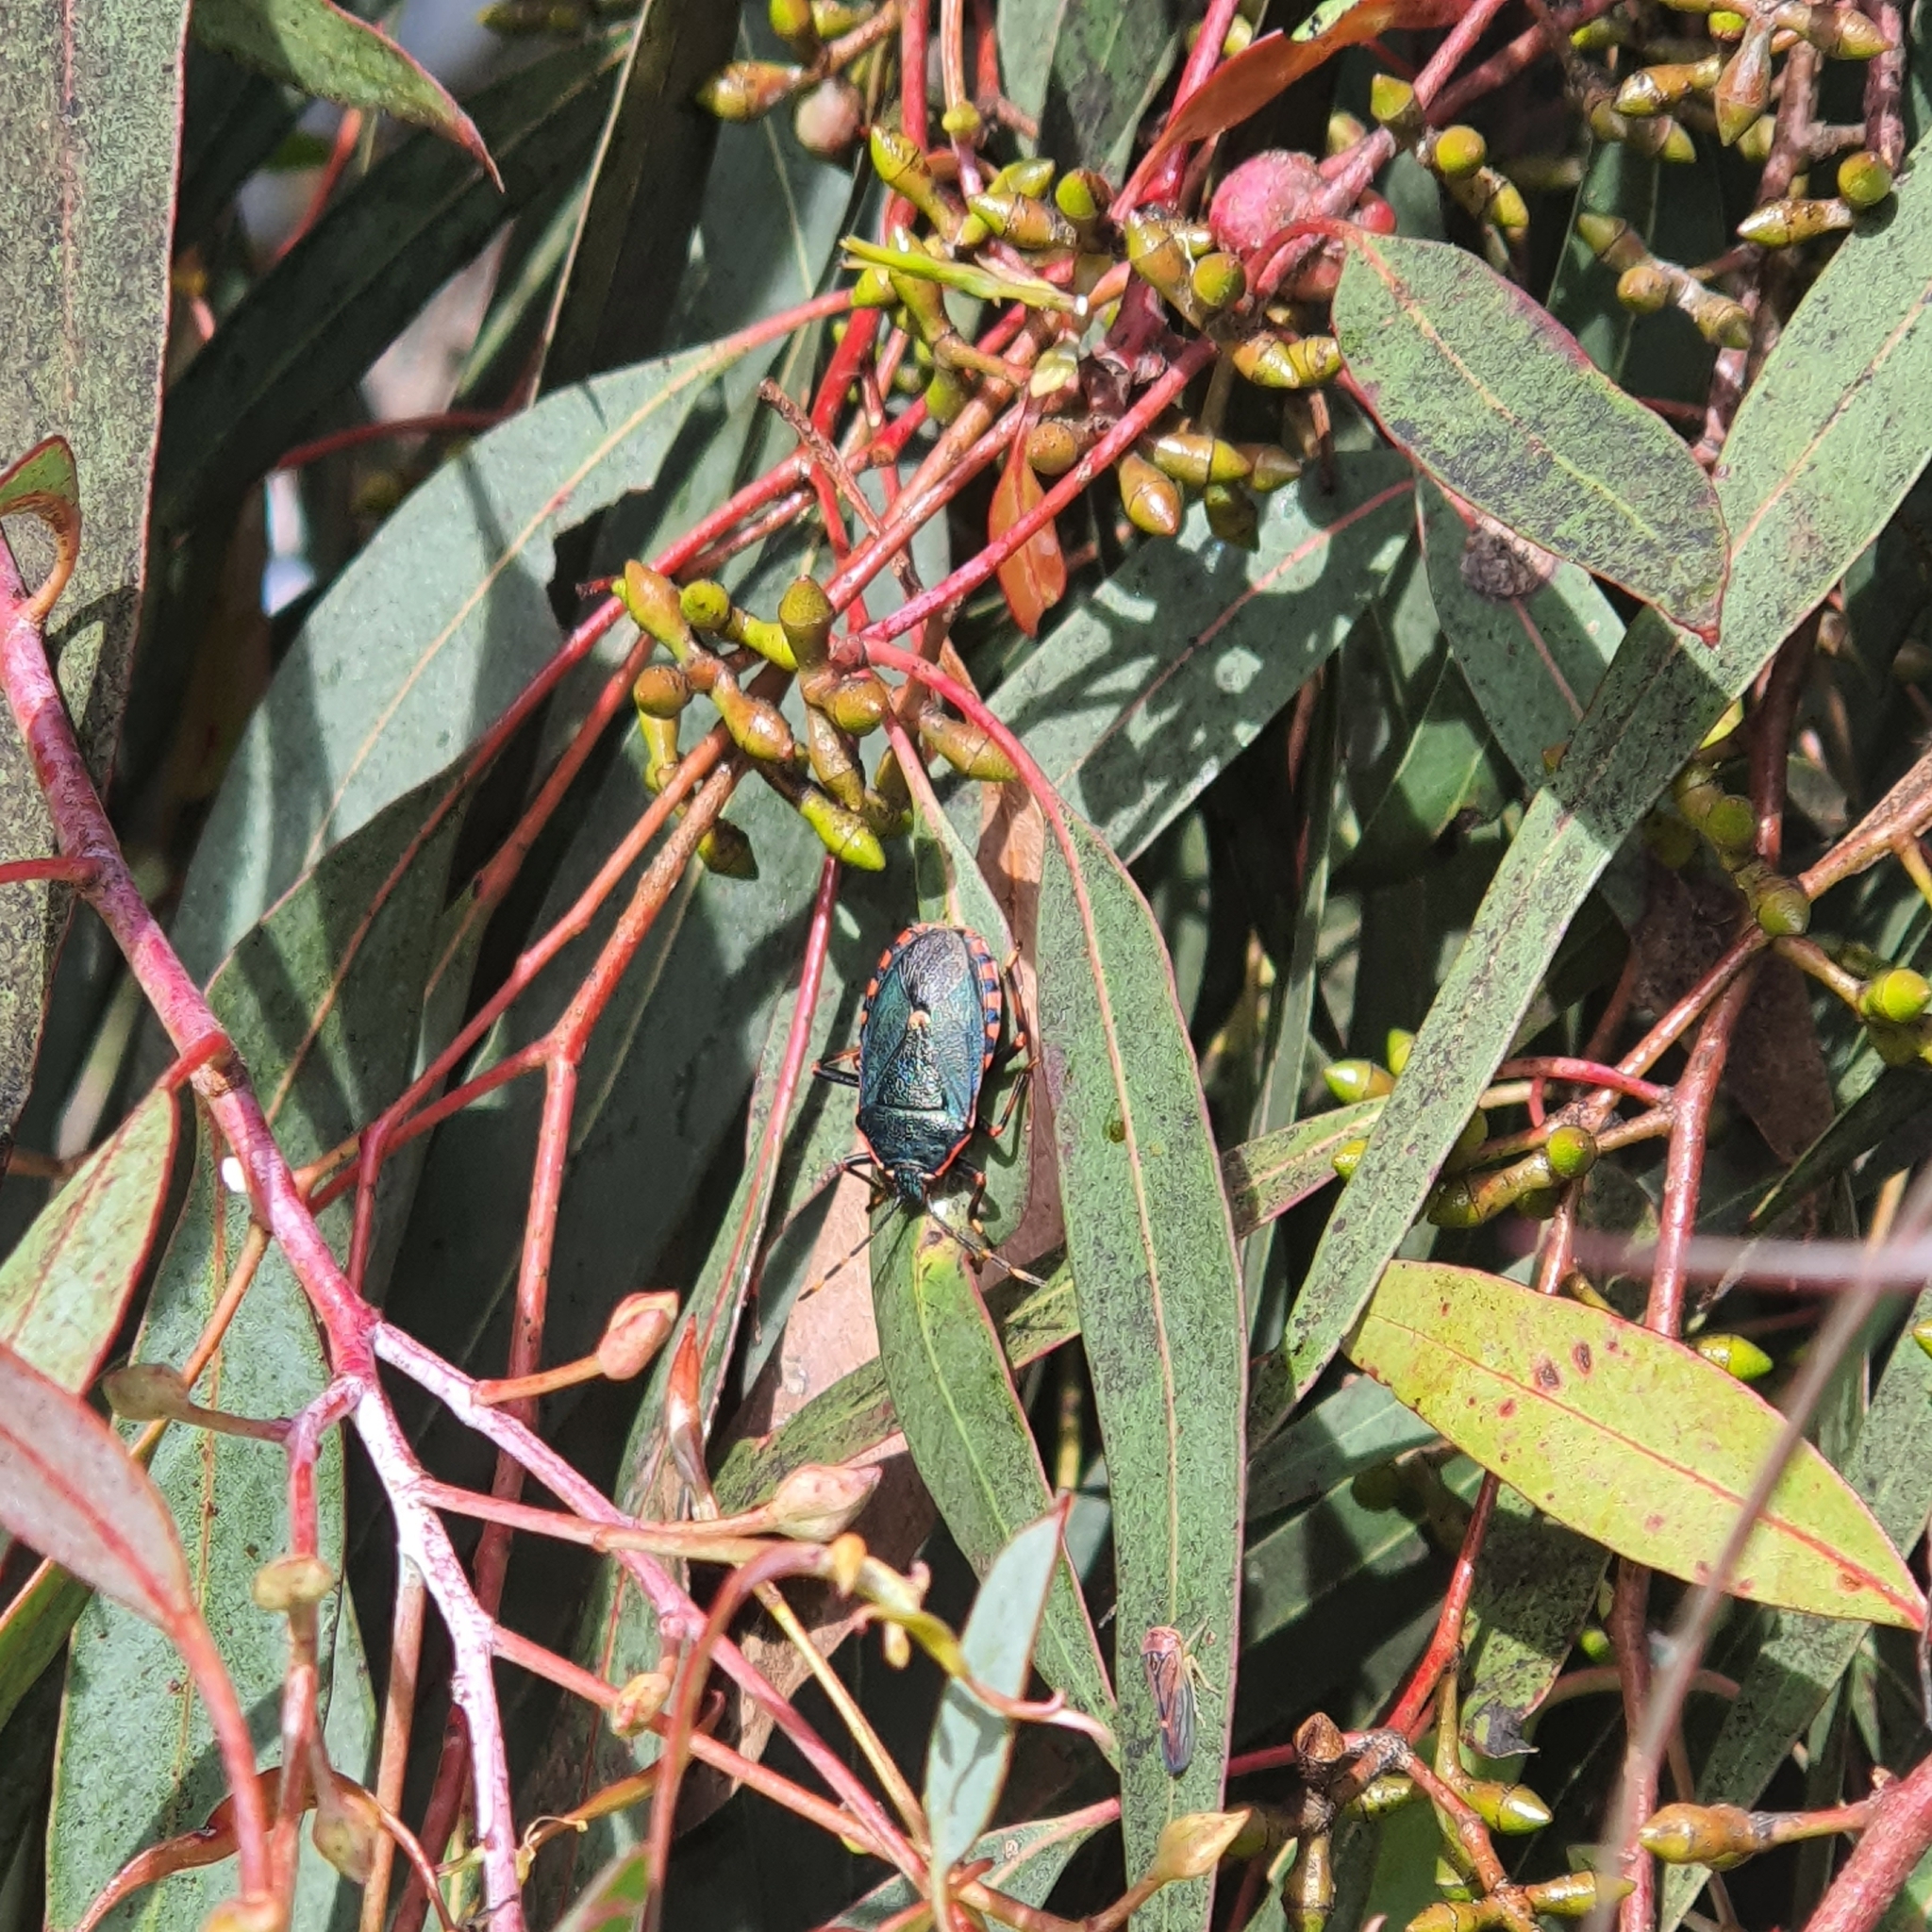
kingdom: Animalia
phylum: Arthropoda
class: Insecta
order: Hemiptera
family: Pentatomidae
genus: Notius
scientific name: Notius
